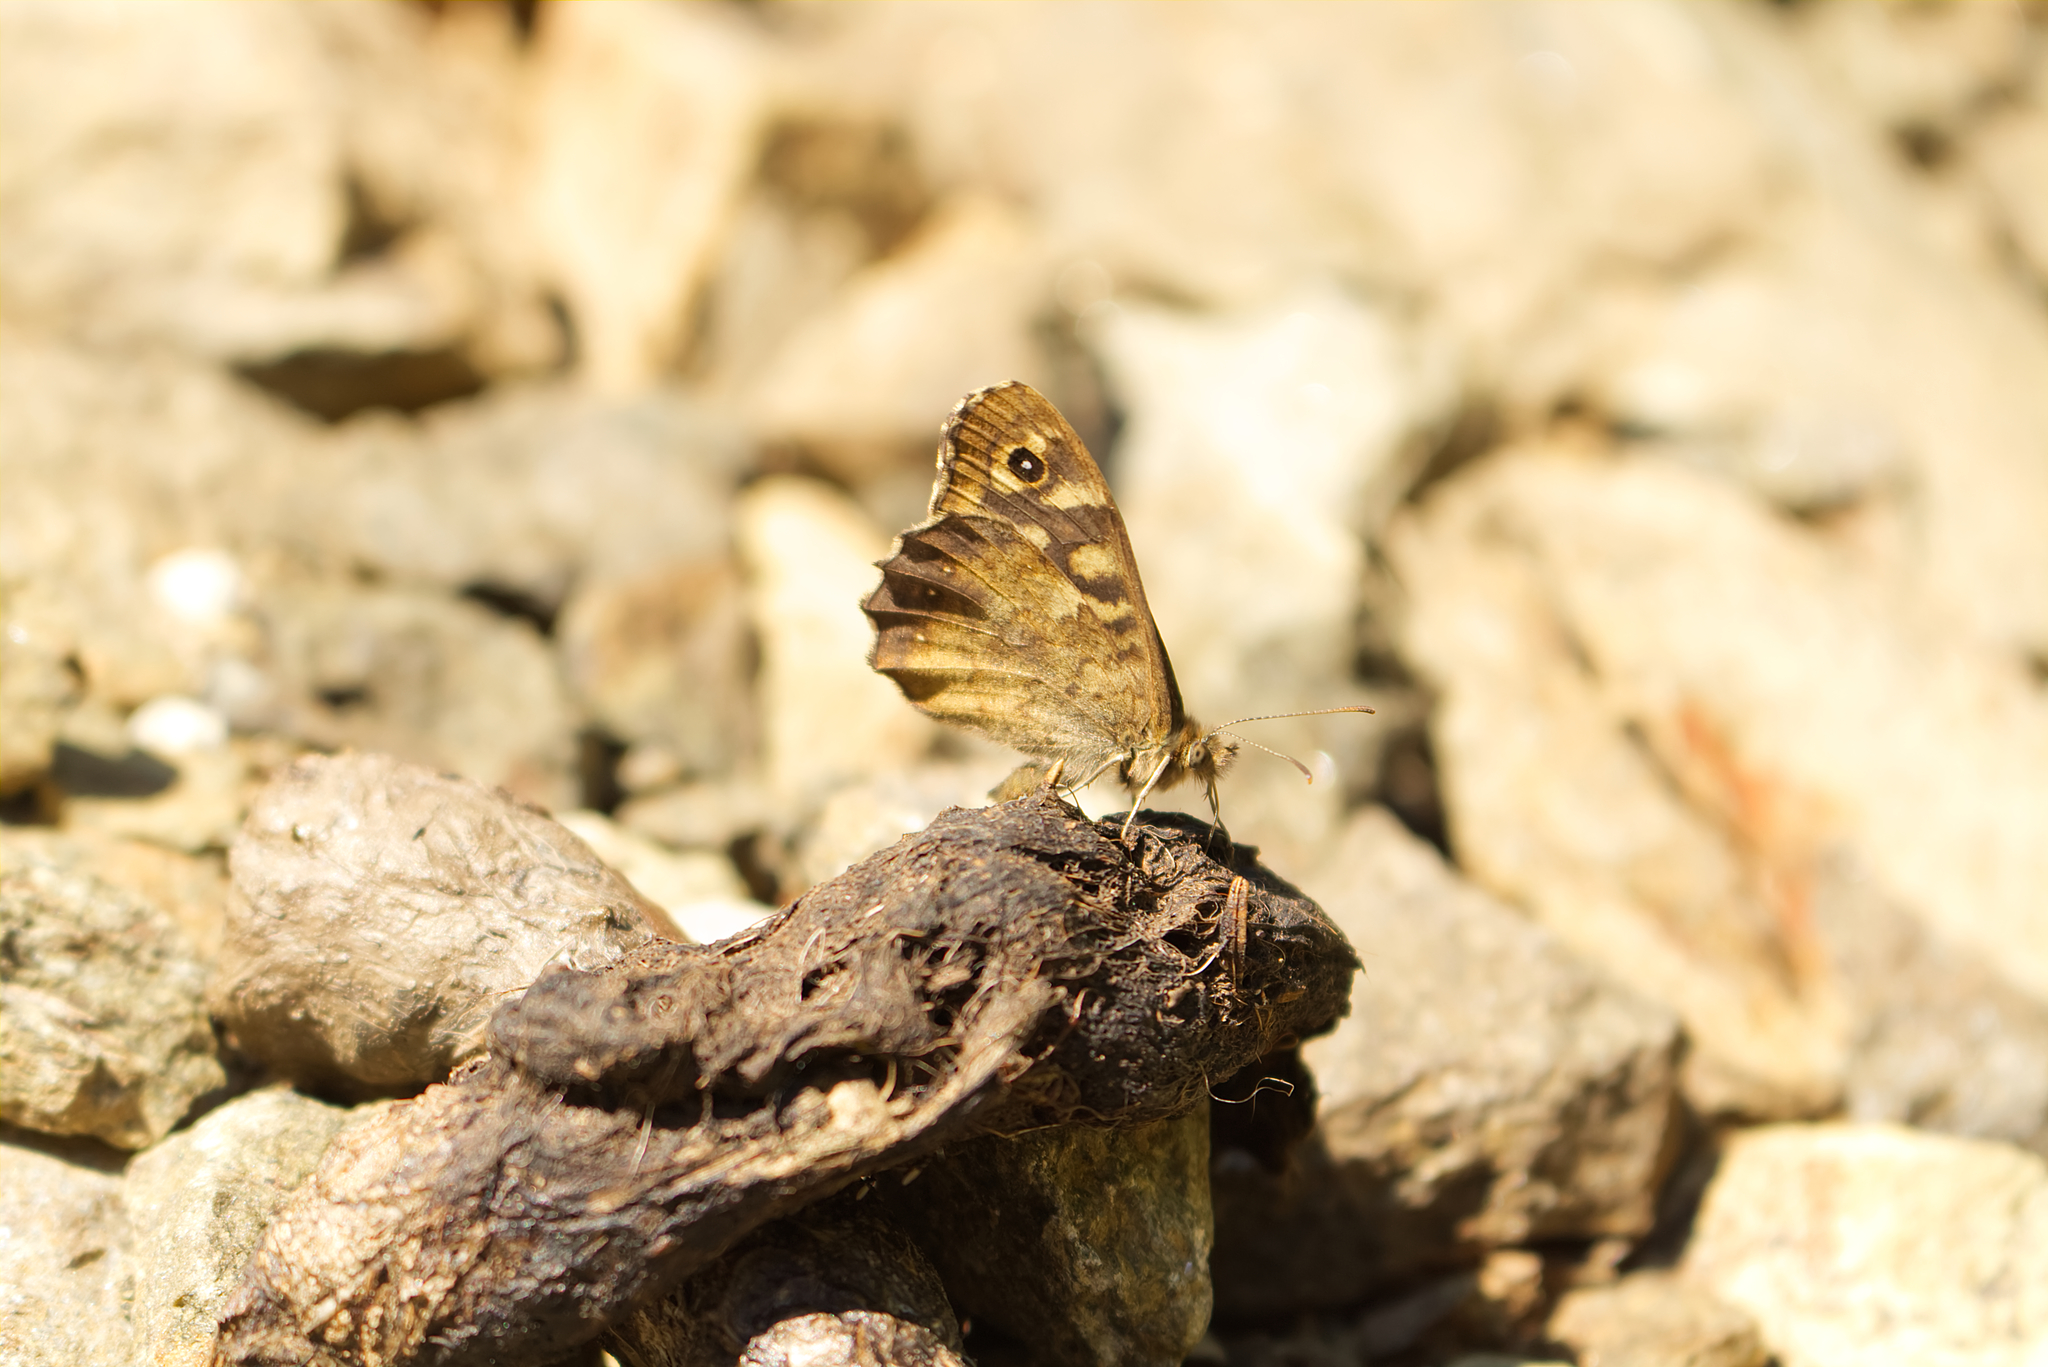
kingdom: Animalia
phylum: Arthropoda
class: Insecta
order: Lepidoptera
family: Nymphalidae
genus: Pararge
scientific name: Pararge aegeria
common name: Speckled wood
